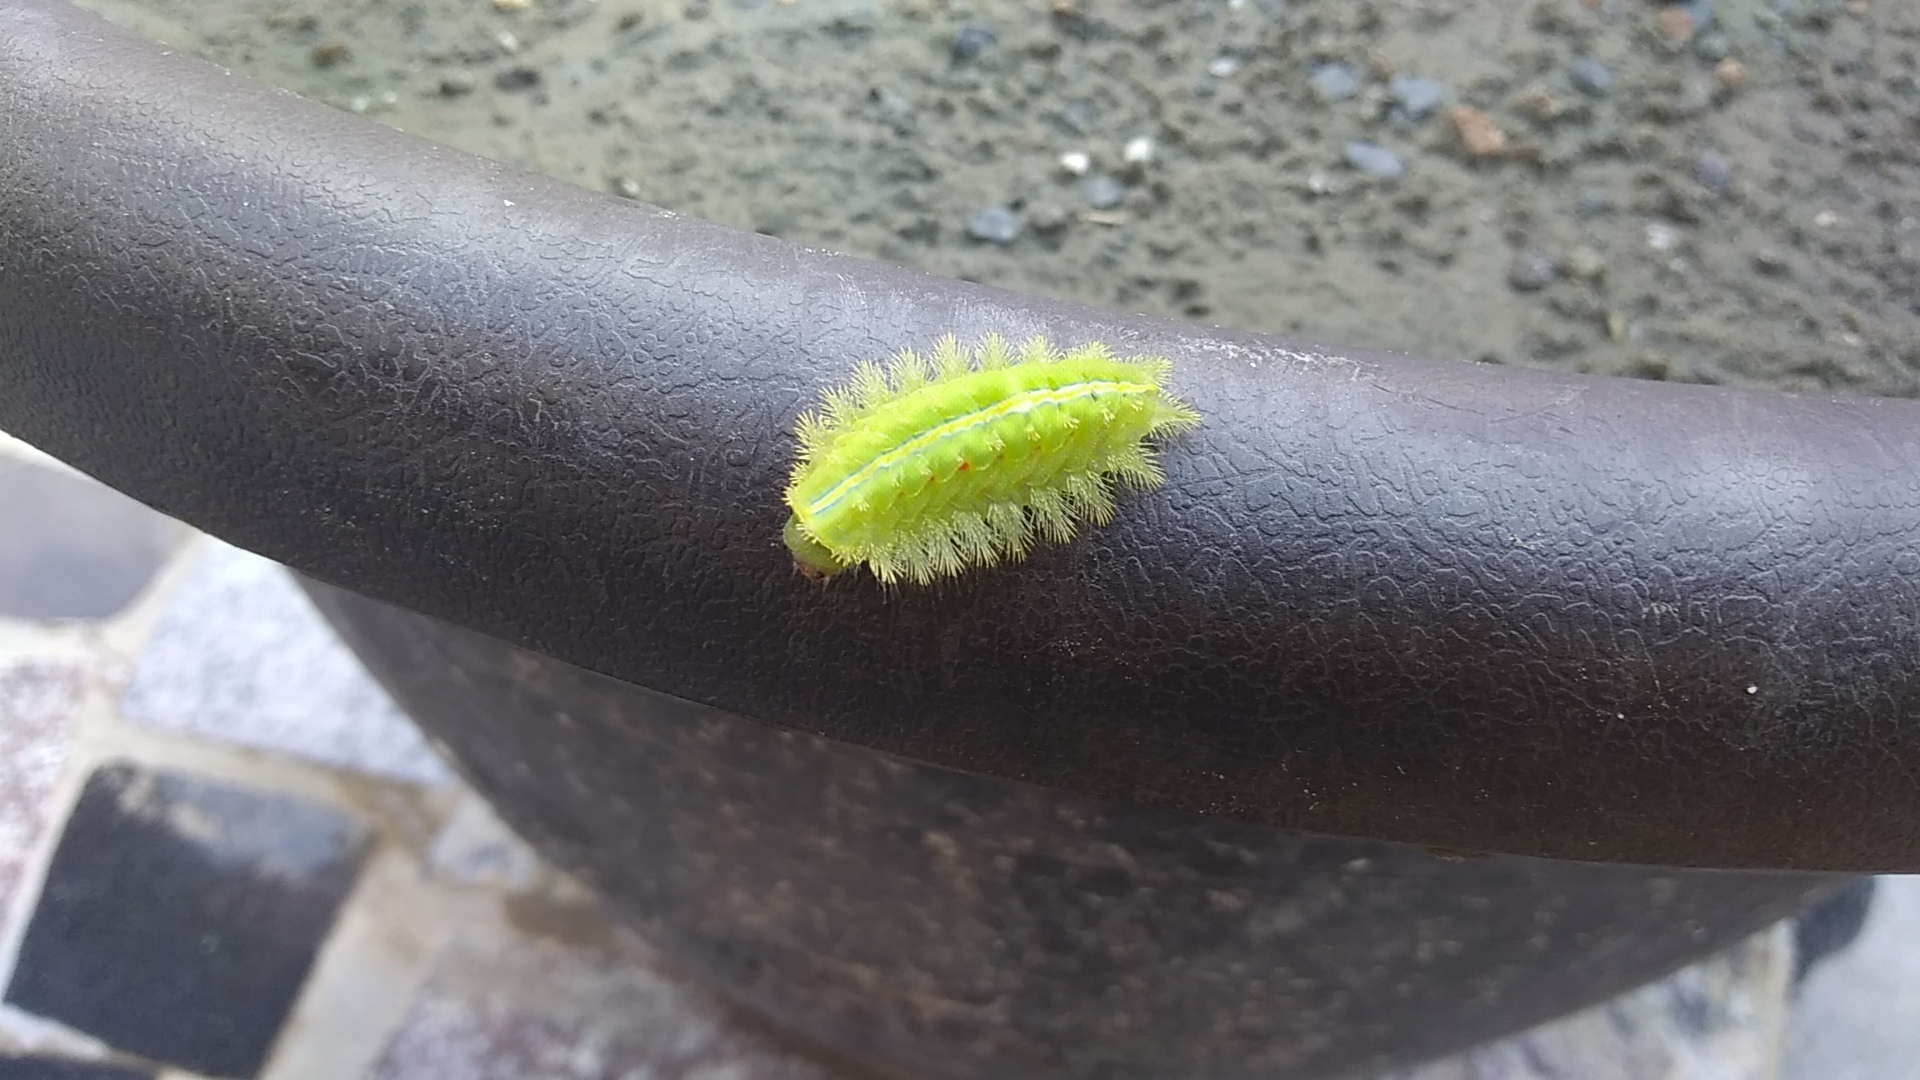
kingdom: Animalia
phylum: Arthropoda
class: Insecta
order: Lepidoptera
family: Limacodidae
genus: Thosea
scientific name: Thosea sinensis
